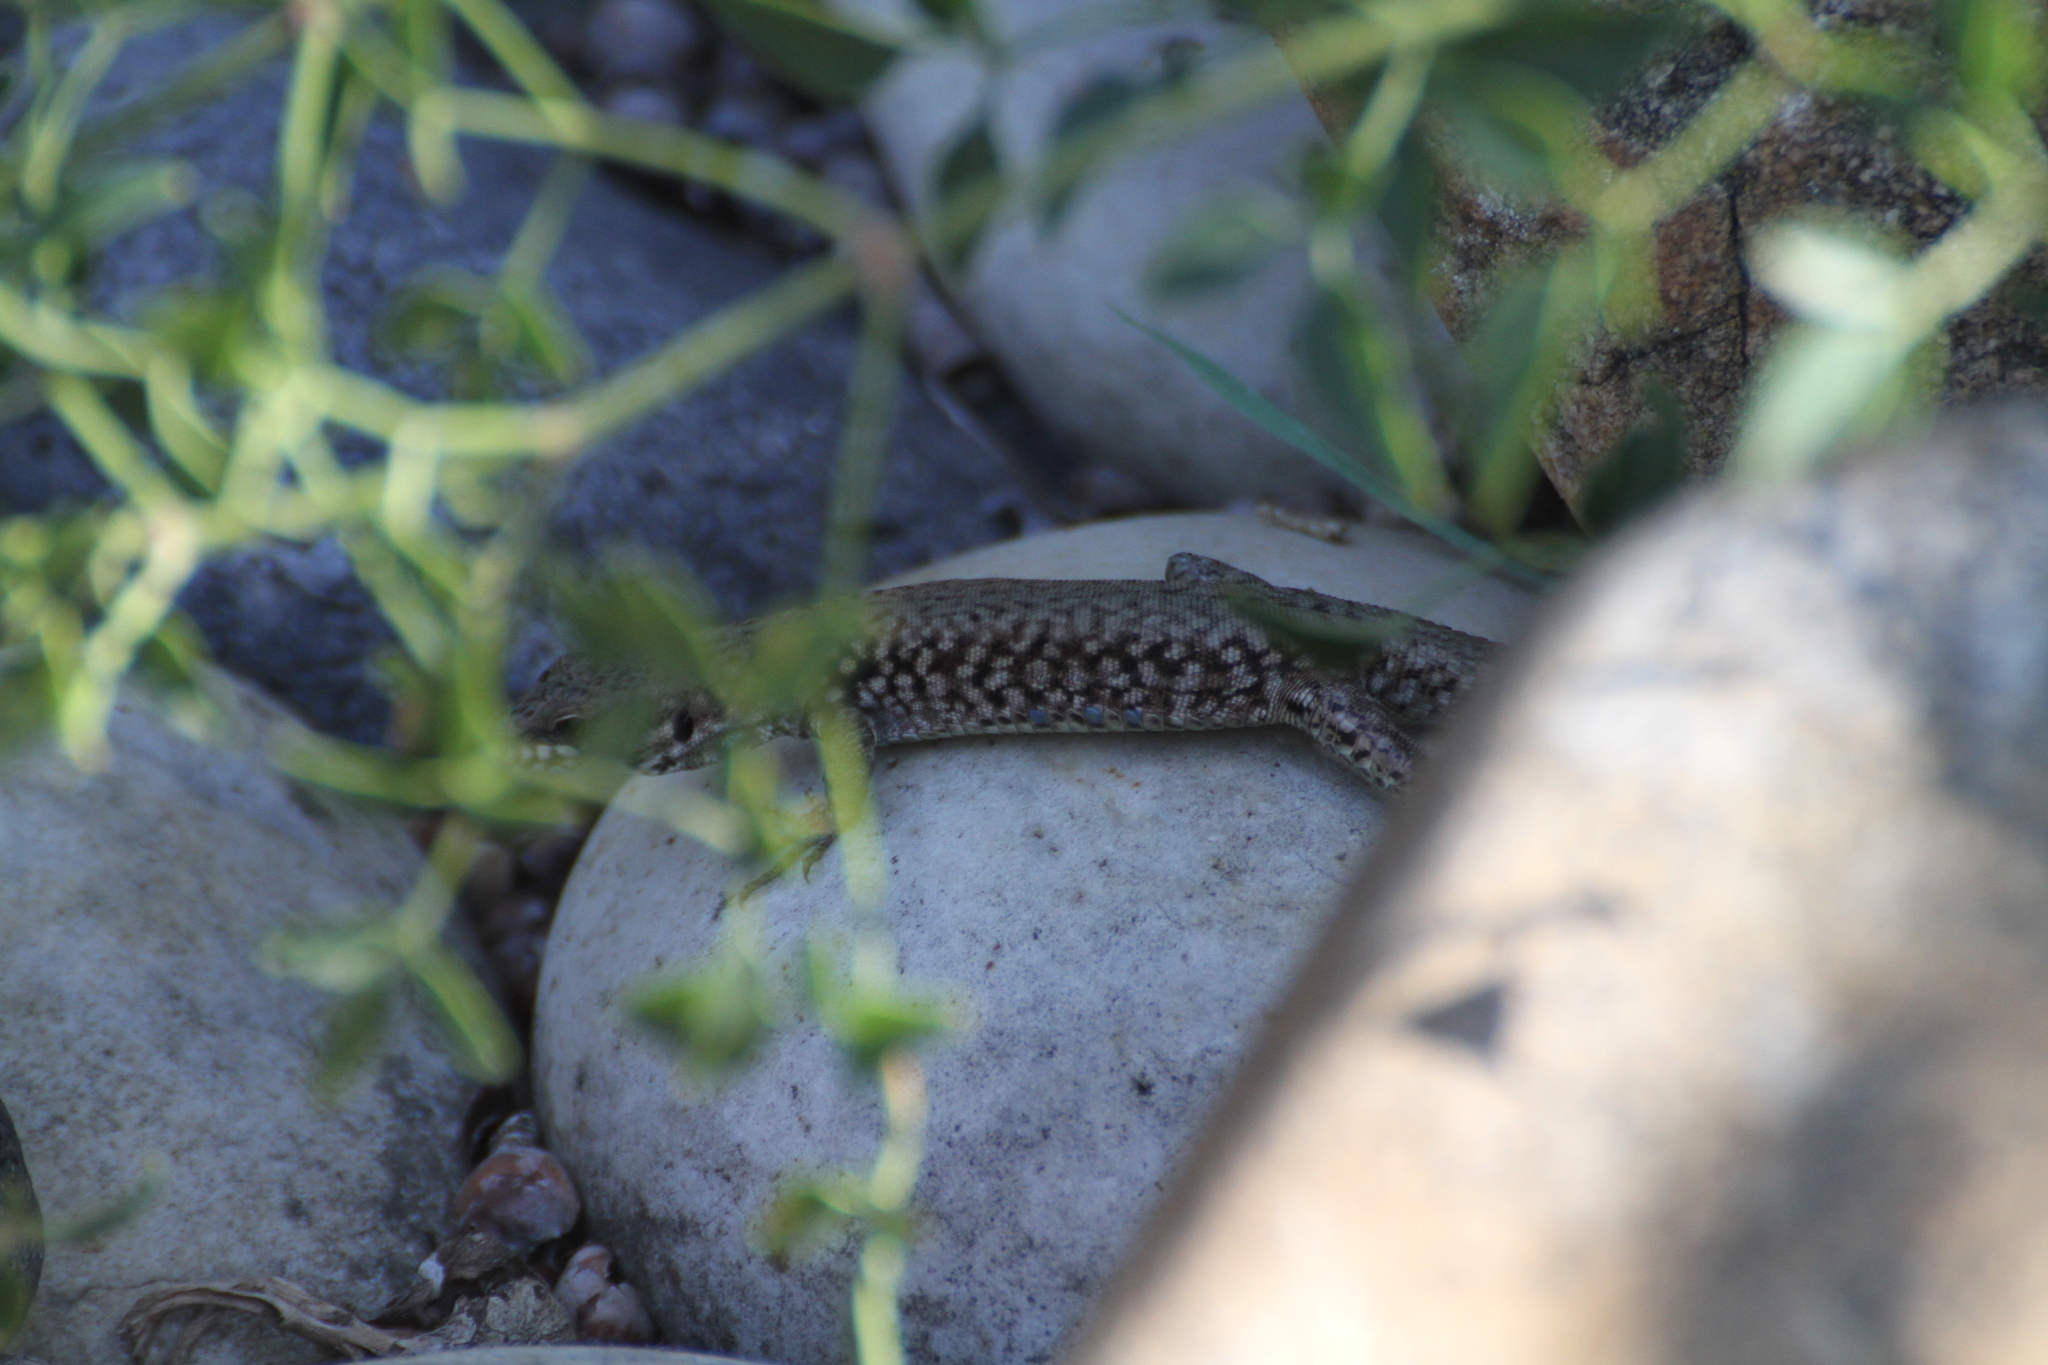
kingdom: Animalia
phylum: Chordata
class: Squamata
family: Lacertidae
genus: Podarcis
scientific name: Podarcis muralis
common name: Common wall lizard
